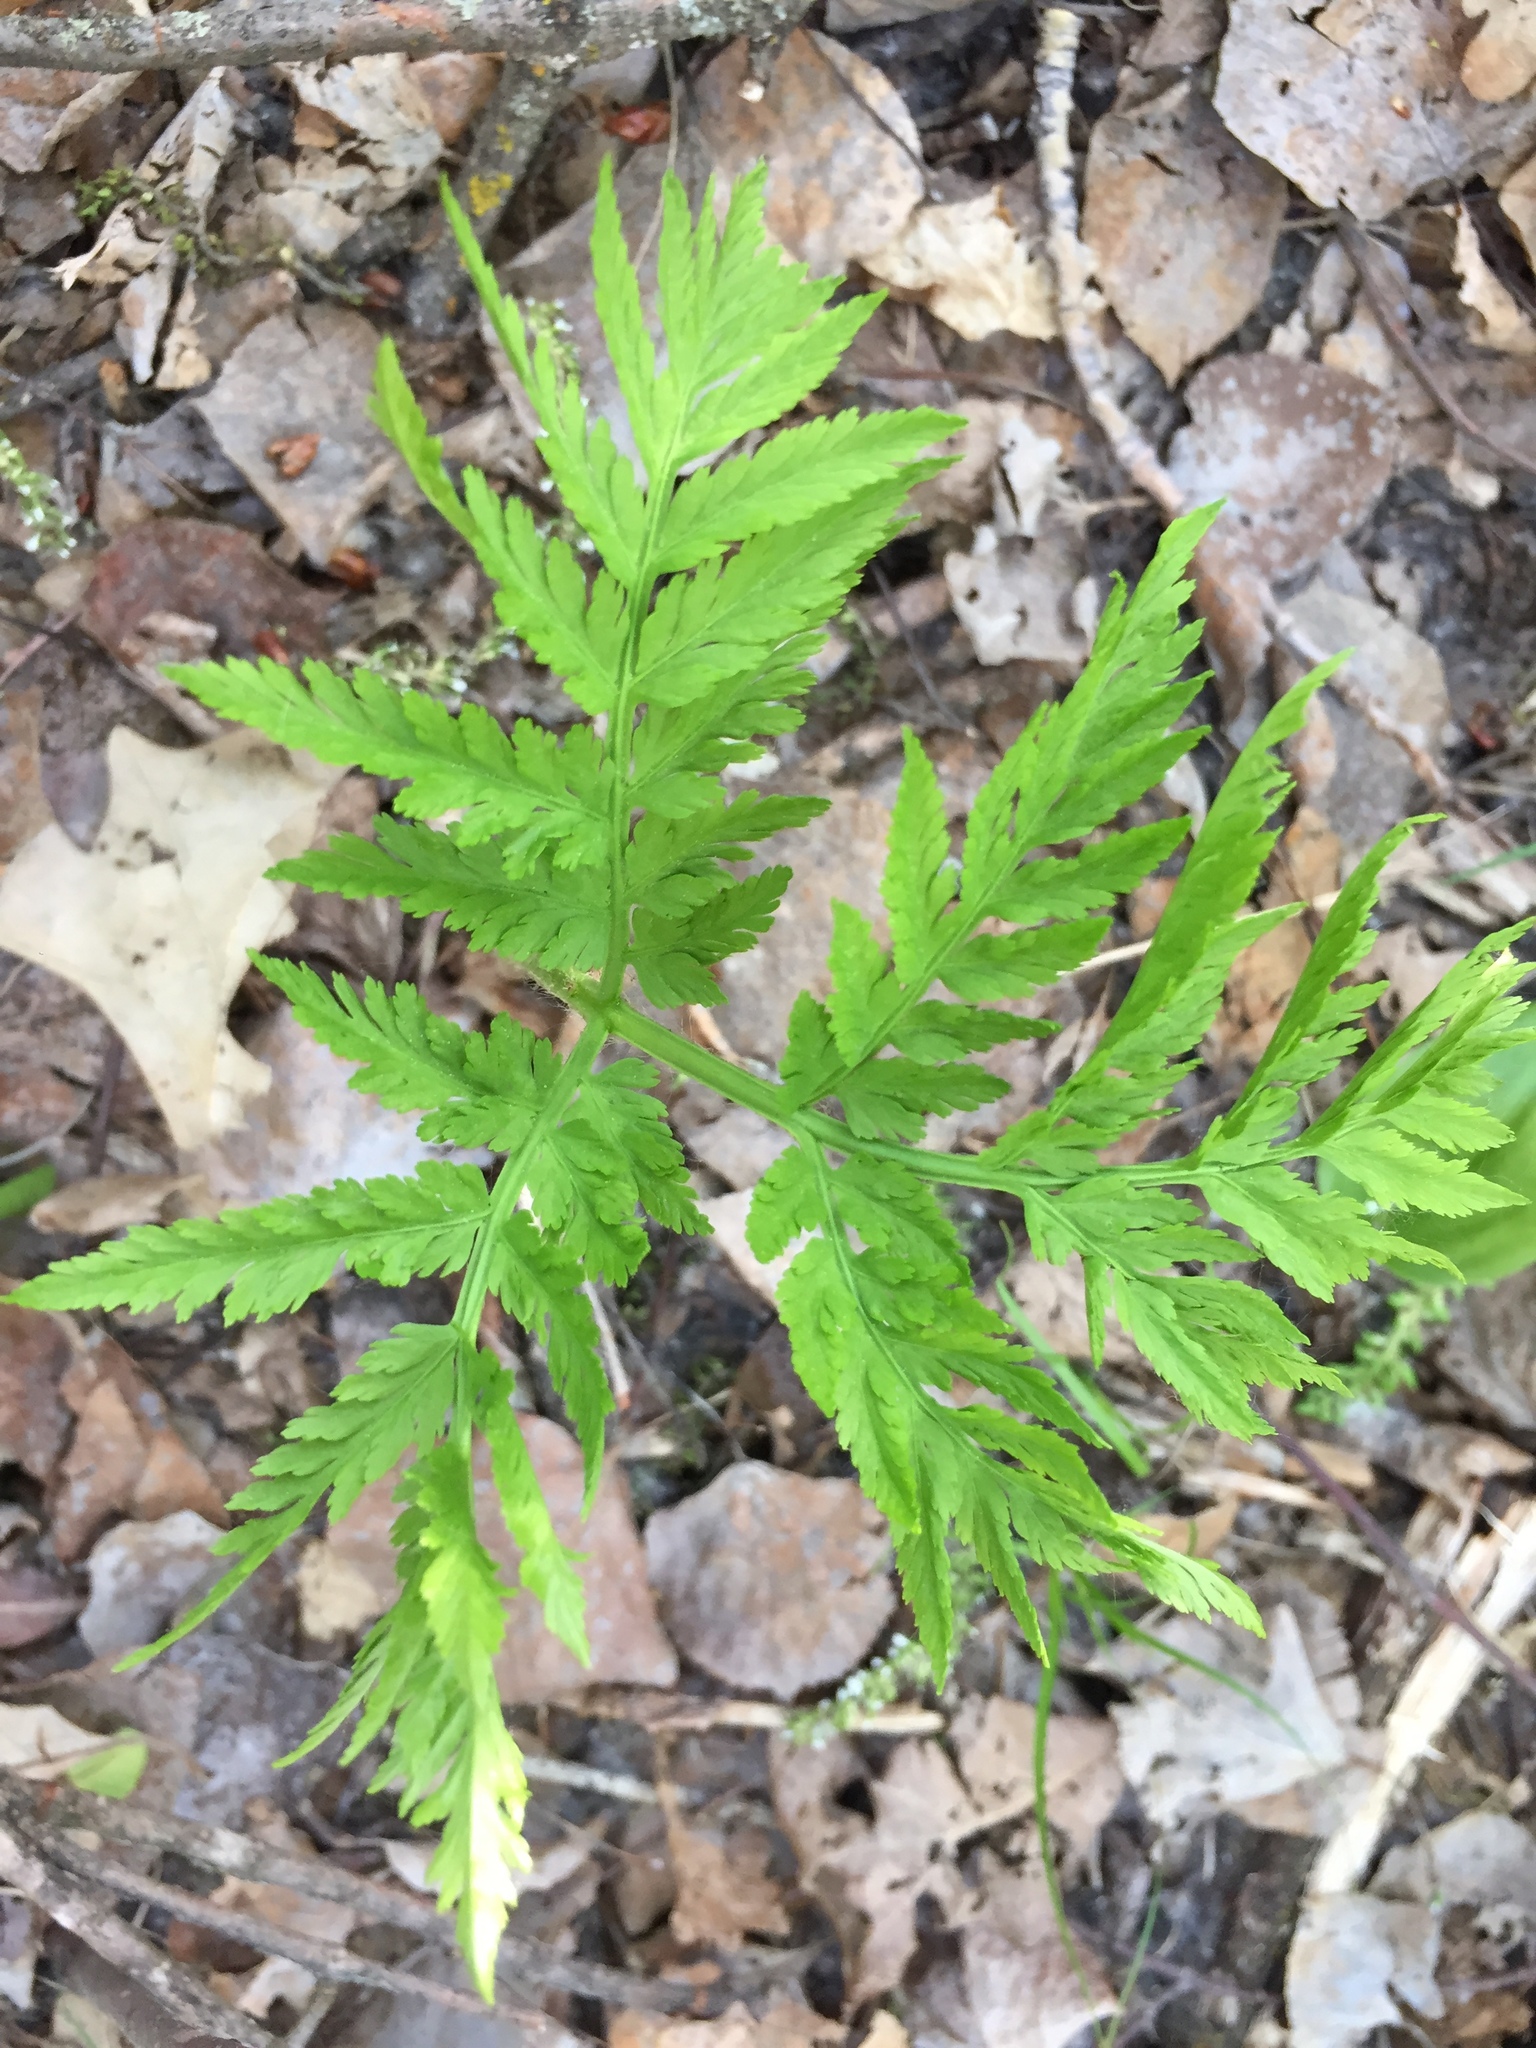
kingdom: Plantae
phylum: Tracheophyta
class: Polypodiopsida
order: Ophioglossales
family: Ophioglossaceae
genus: Botrypus
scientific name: Botrypus virginianus
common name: Common grapefern
